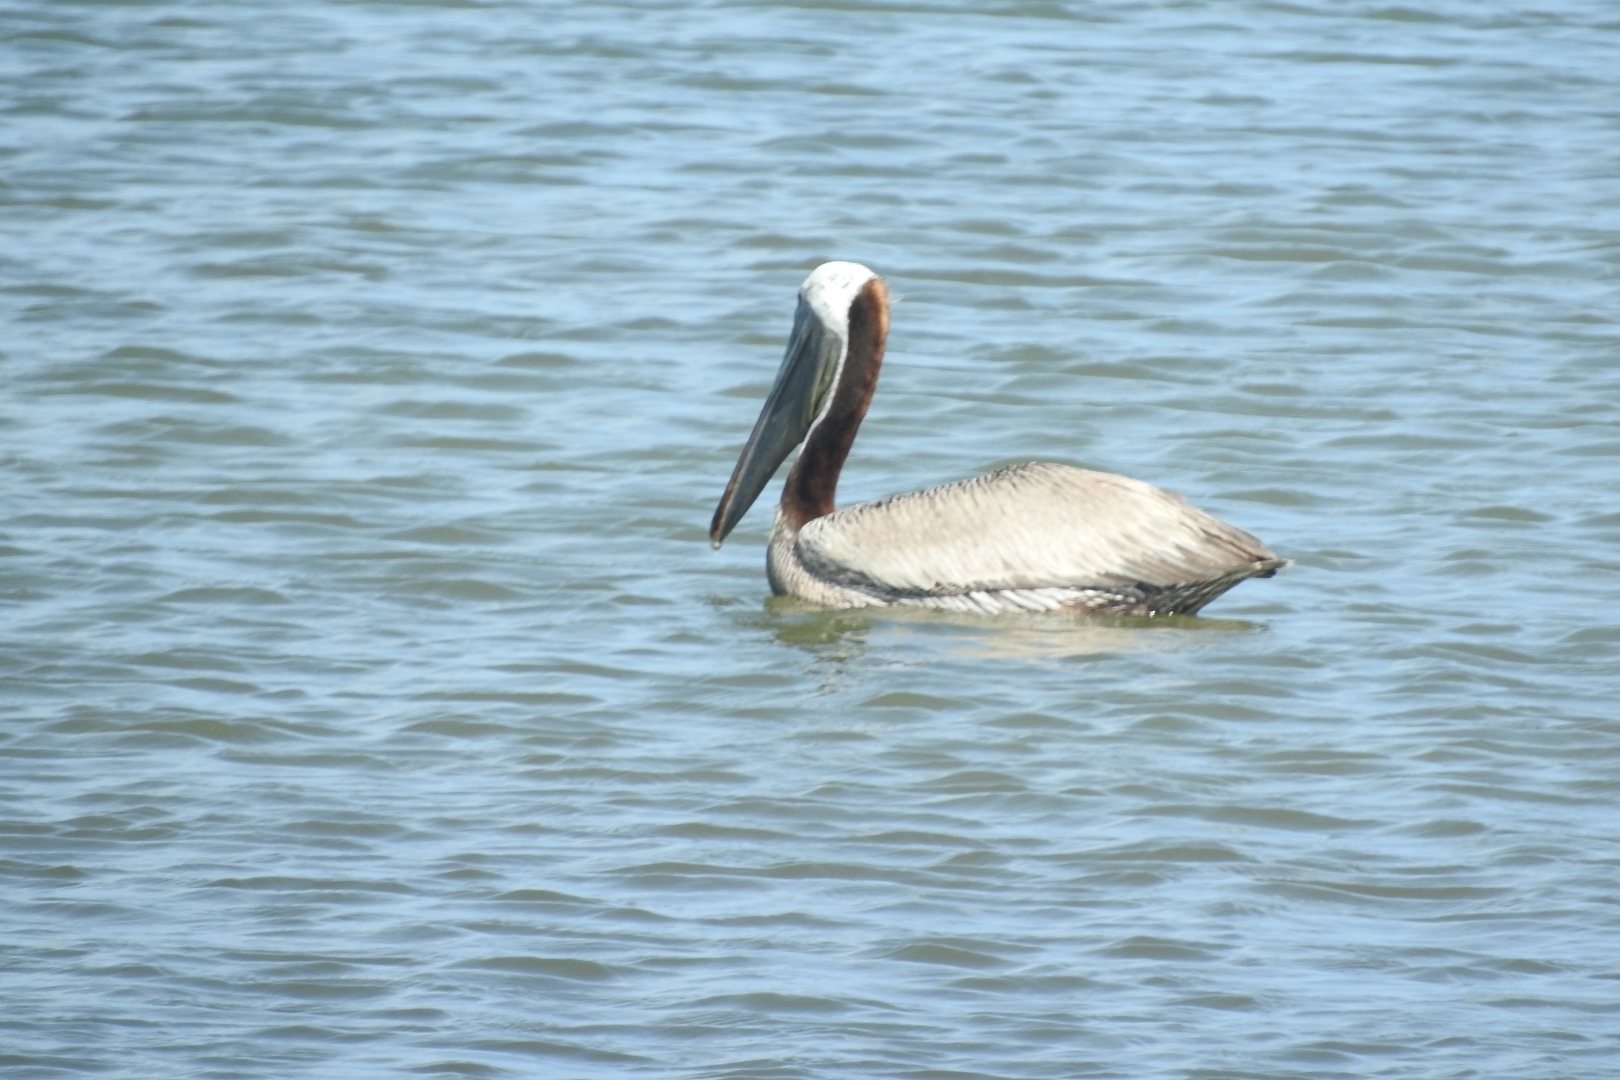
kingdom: Animalia
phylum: Chordata
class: Aves
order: Pelecaniformes
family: Pelecanidae
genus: Pelecanus
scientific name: Pelecanus occidentalis
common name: Brown pelican
